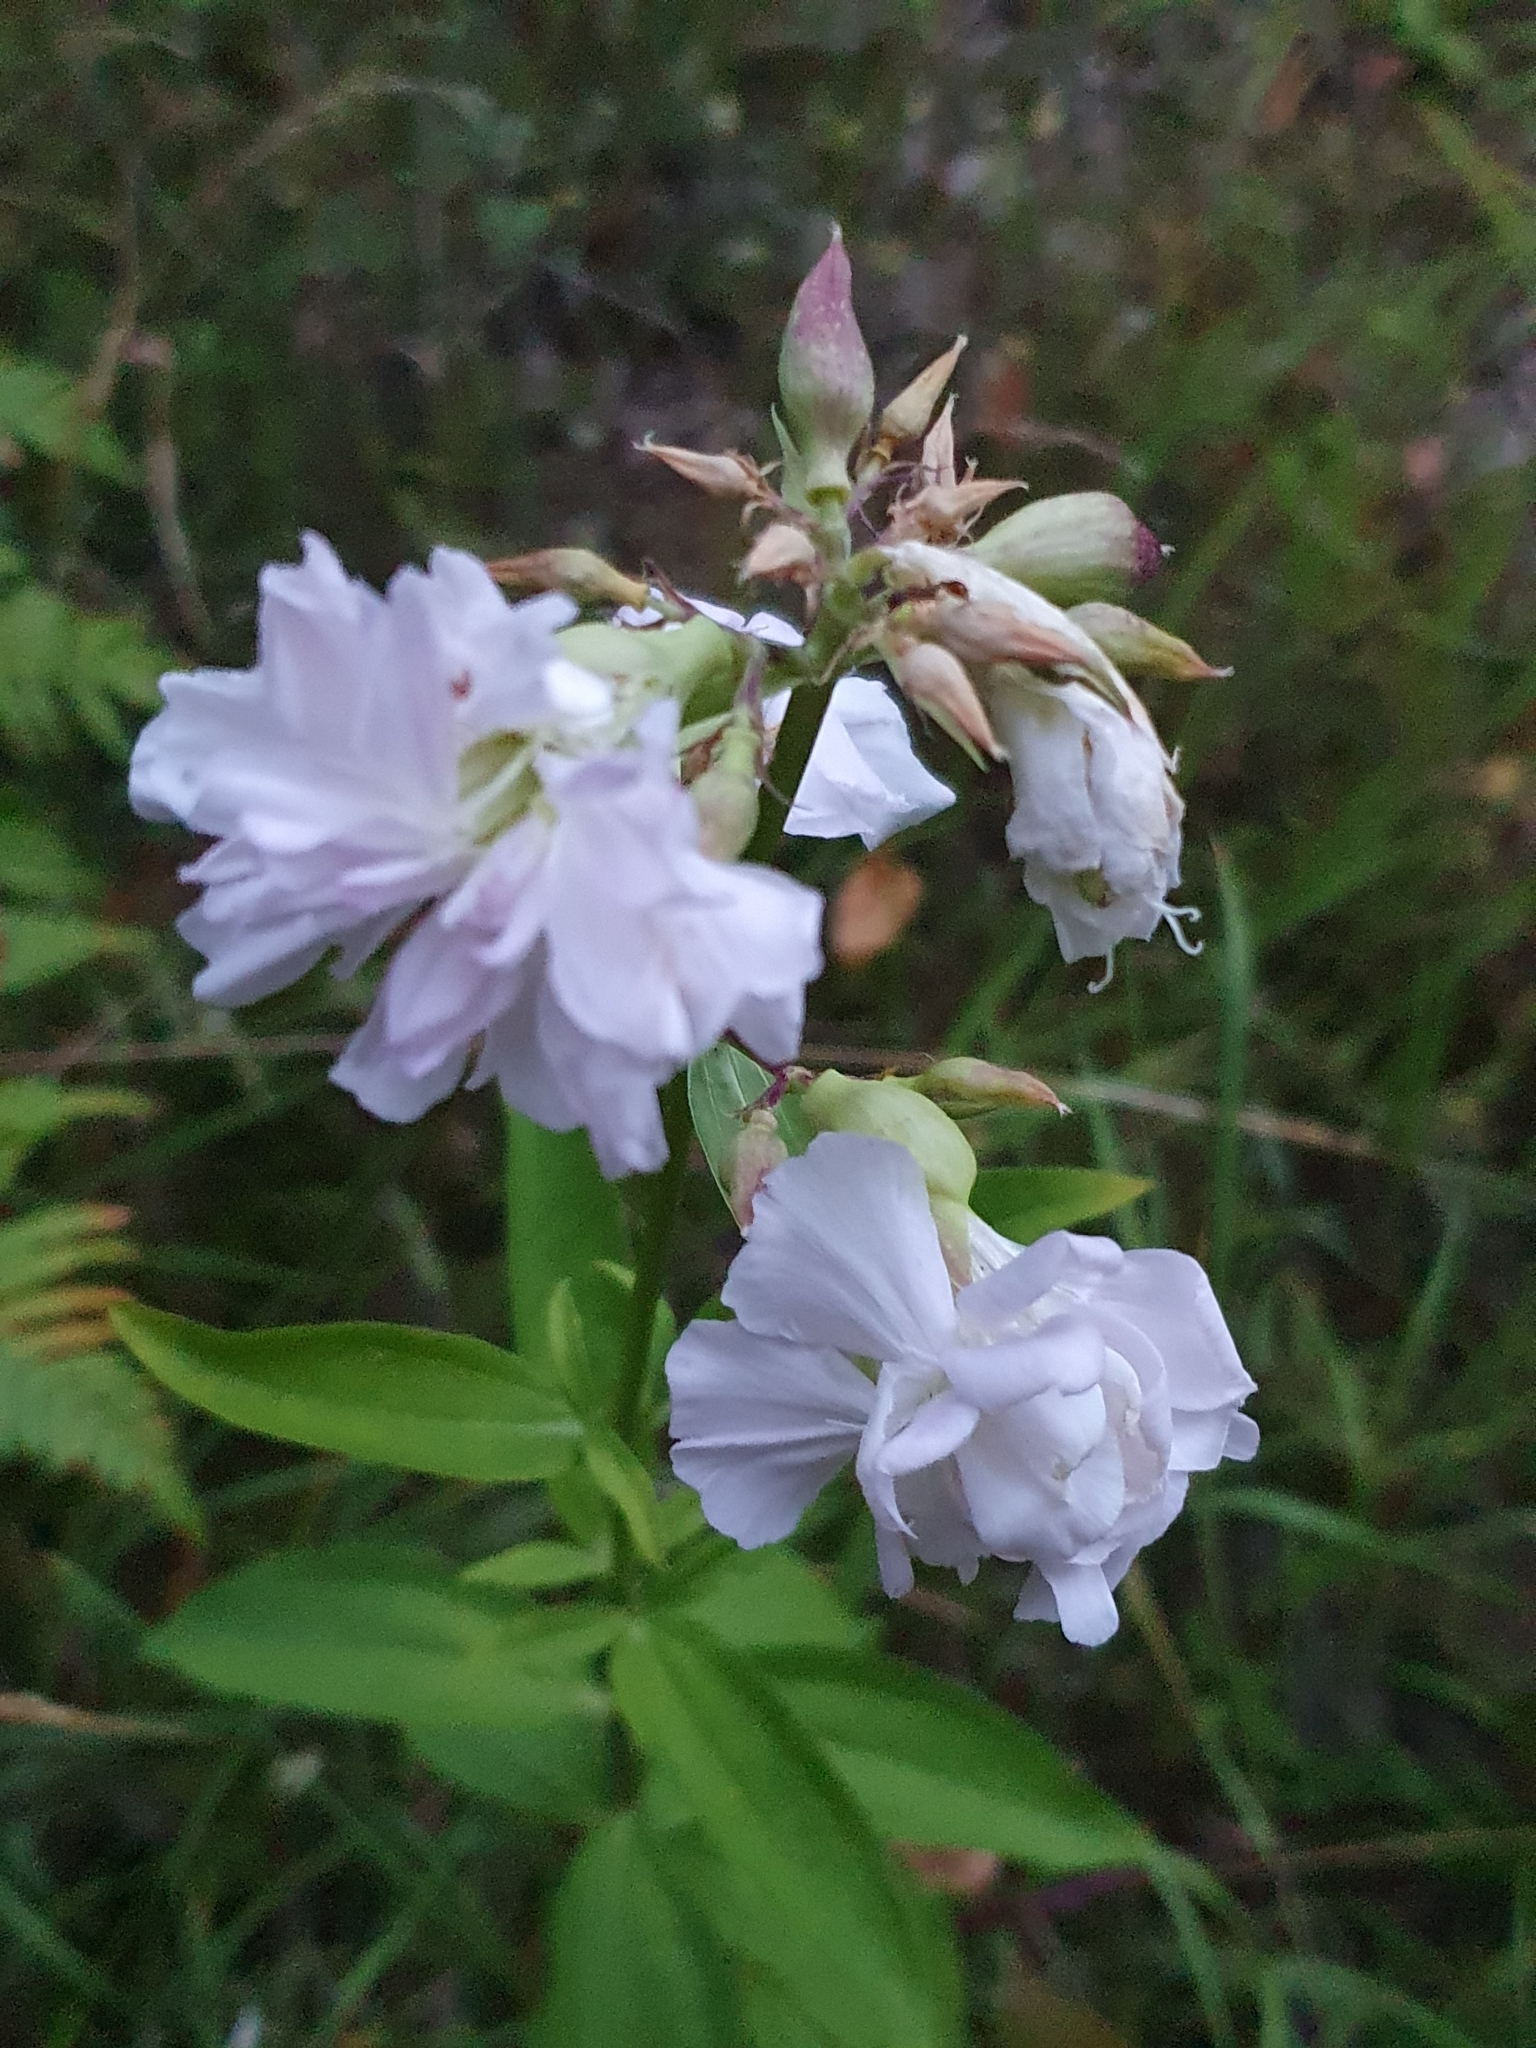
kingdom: Plantae
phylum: Tracheophyta
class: Magnoliopsida
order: Caryophyllales
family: Caryophyllaceae
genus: Saponaria
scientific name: Saponaria officinalis
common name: Soapwort
